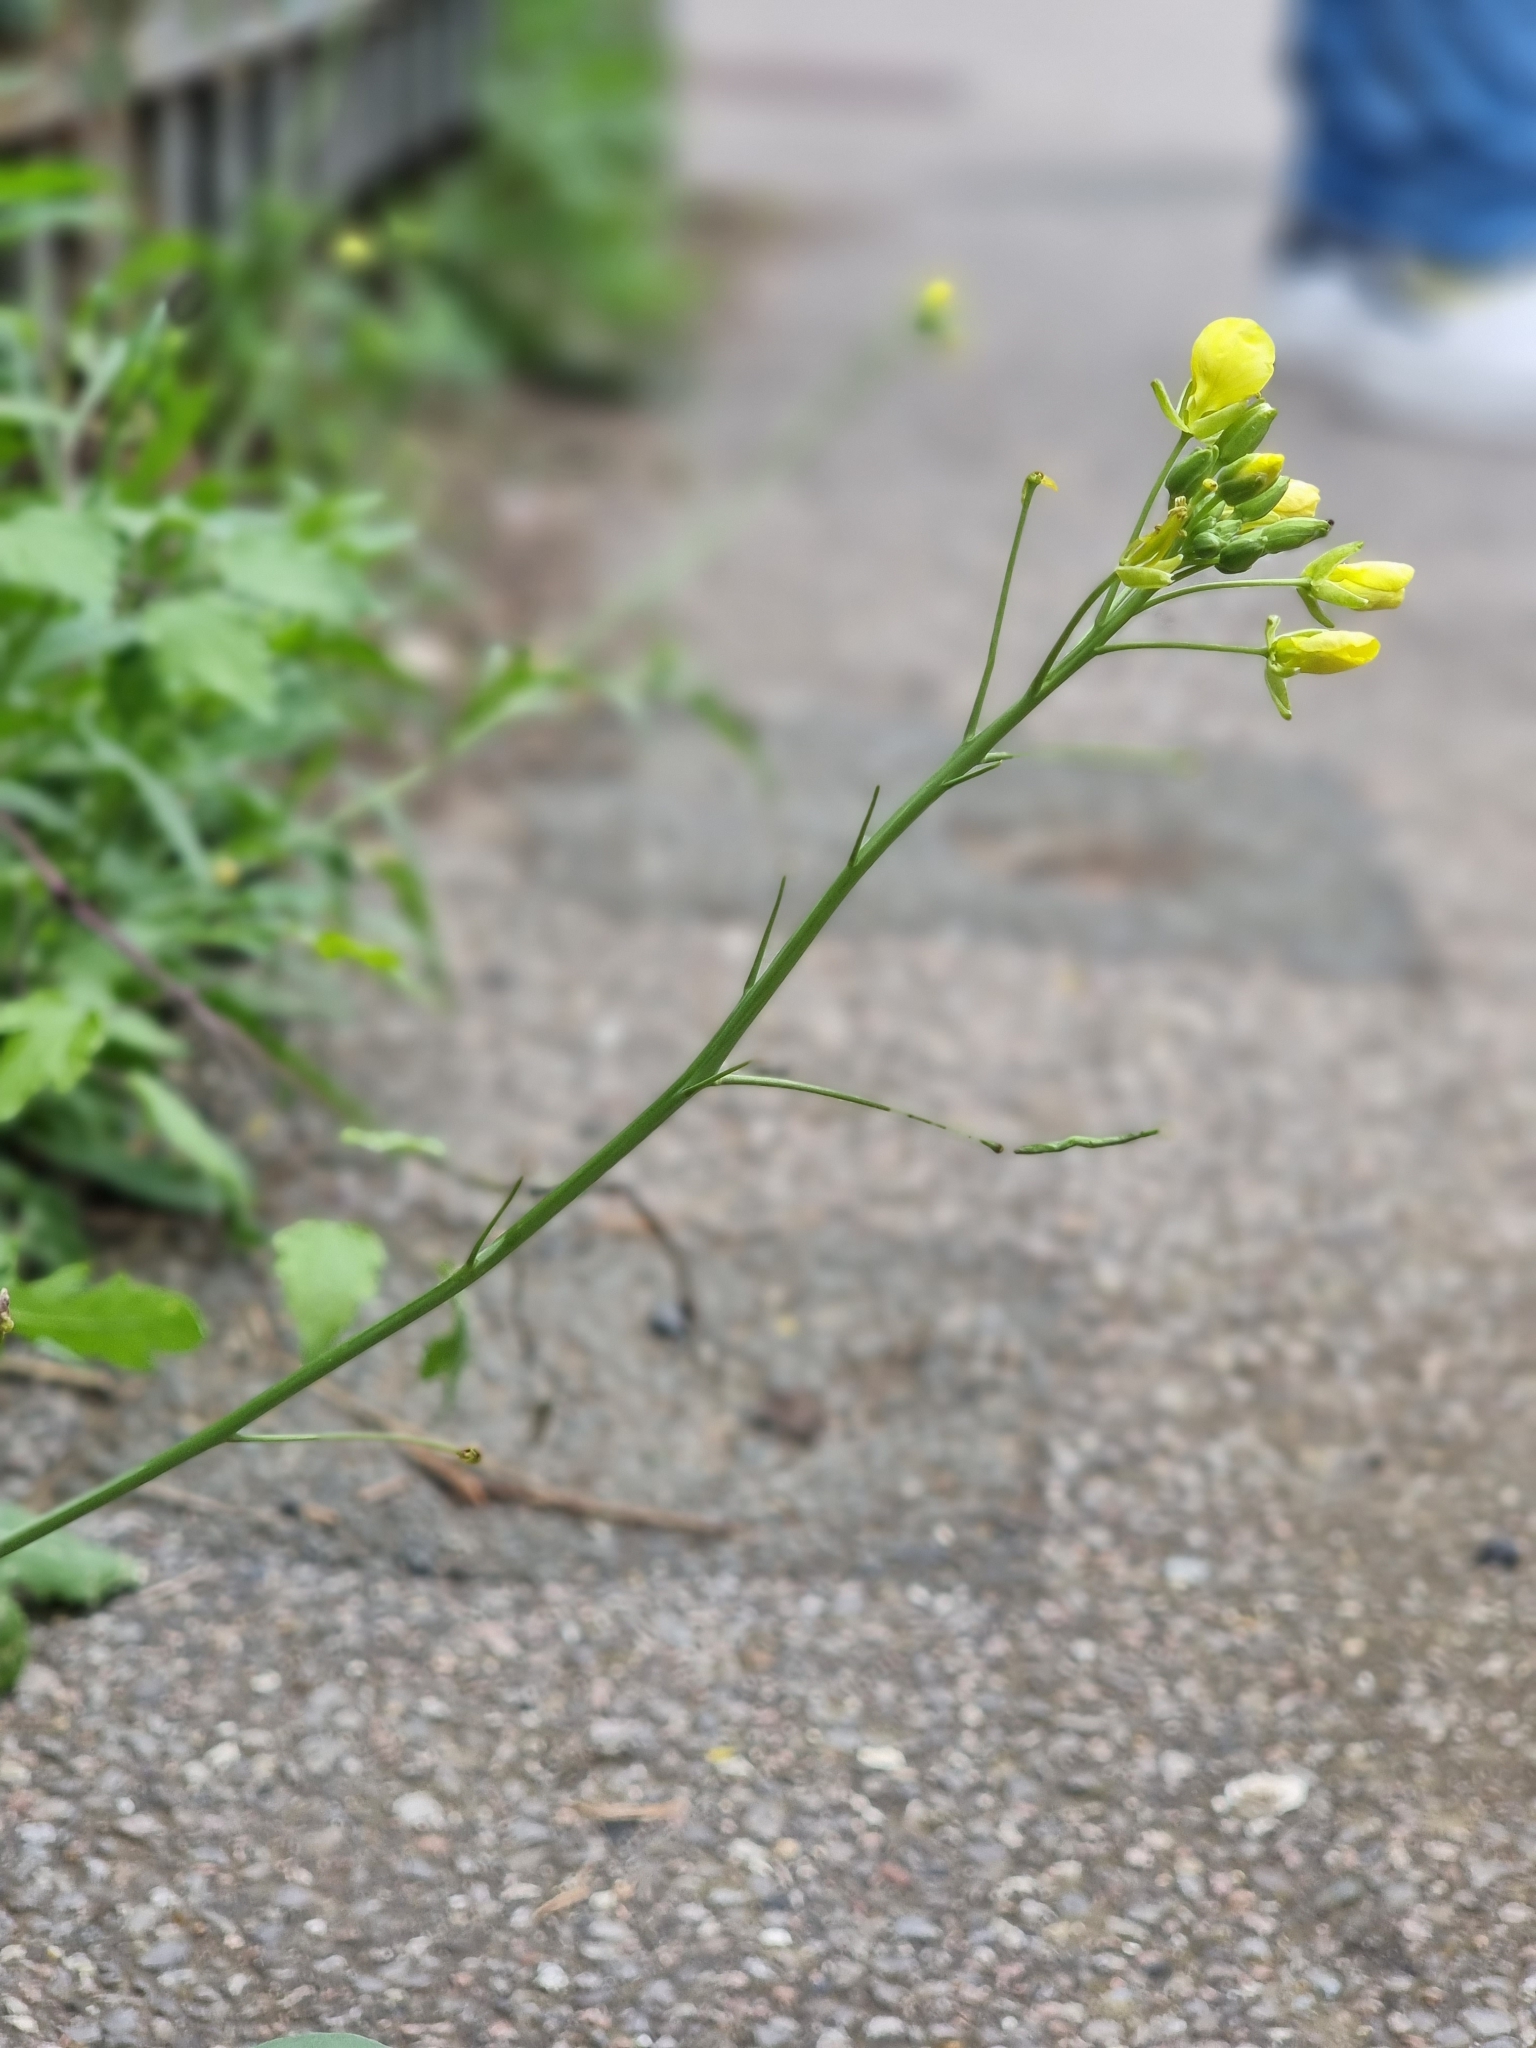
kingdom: Plantae
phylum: Tracheophyta
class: Magnoliopsida
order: Brassicales
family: Brassicaceae
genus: Diplotaxis
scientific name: Diplotaxis tenuifolia
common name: Perennial wall-rocket
